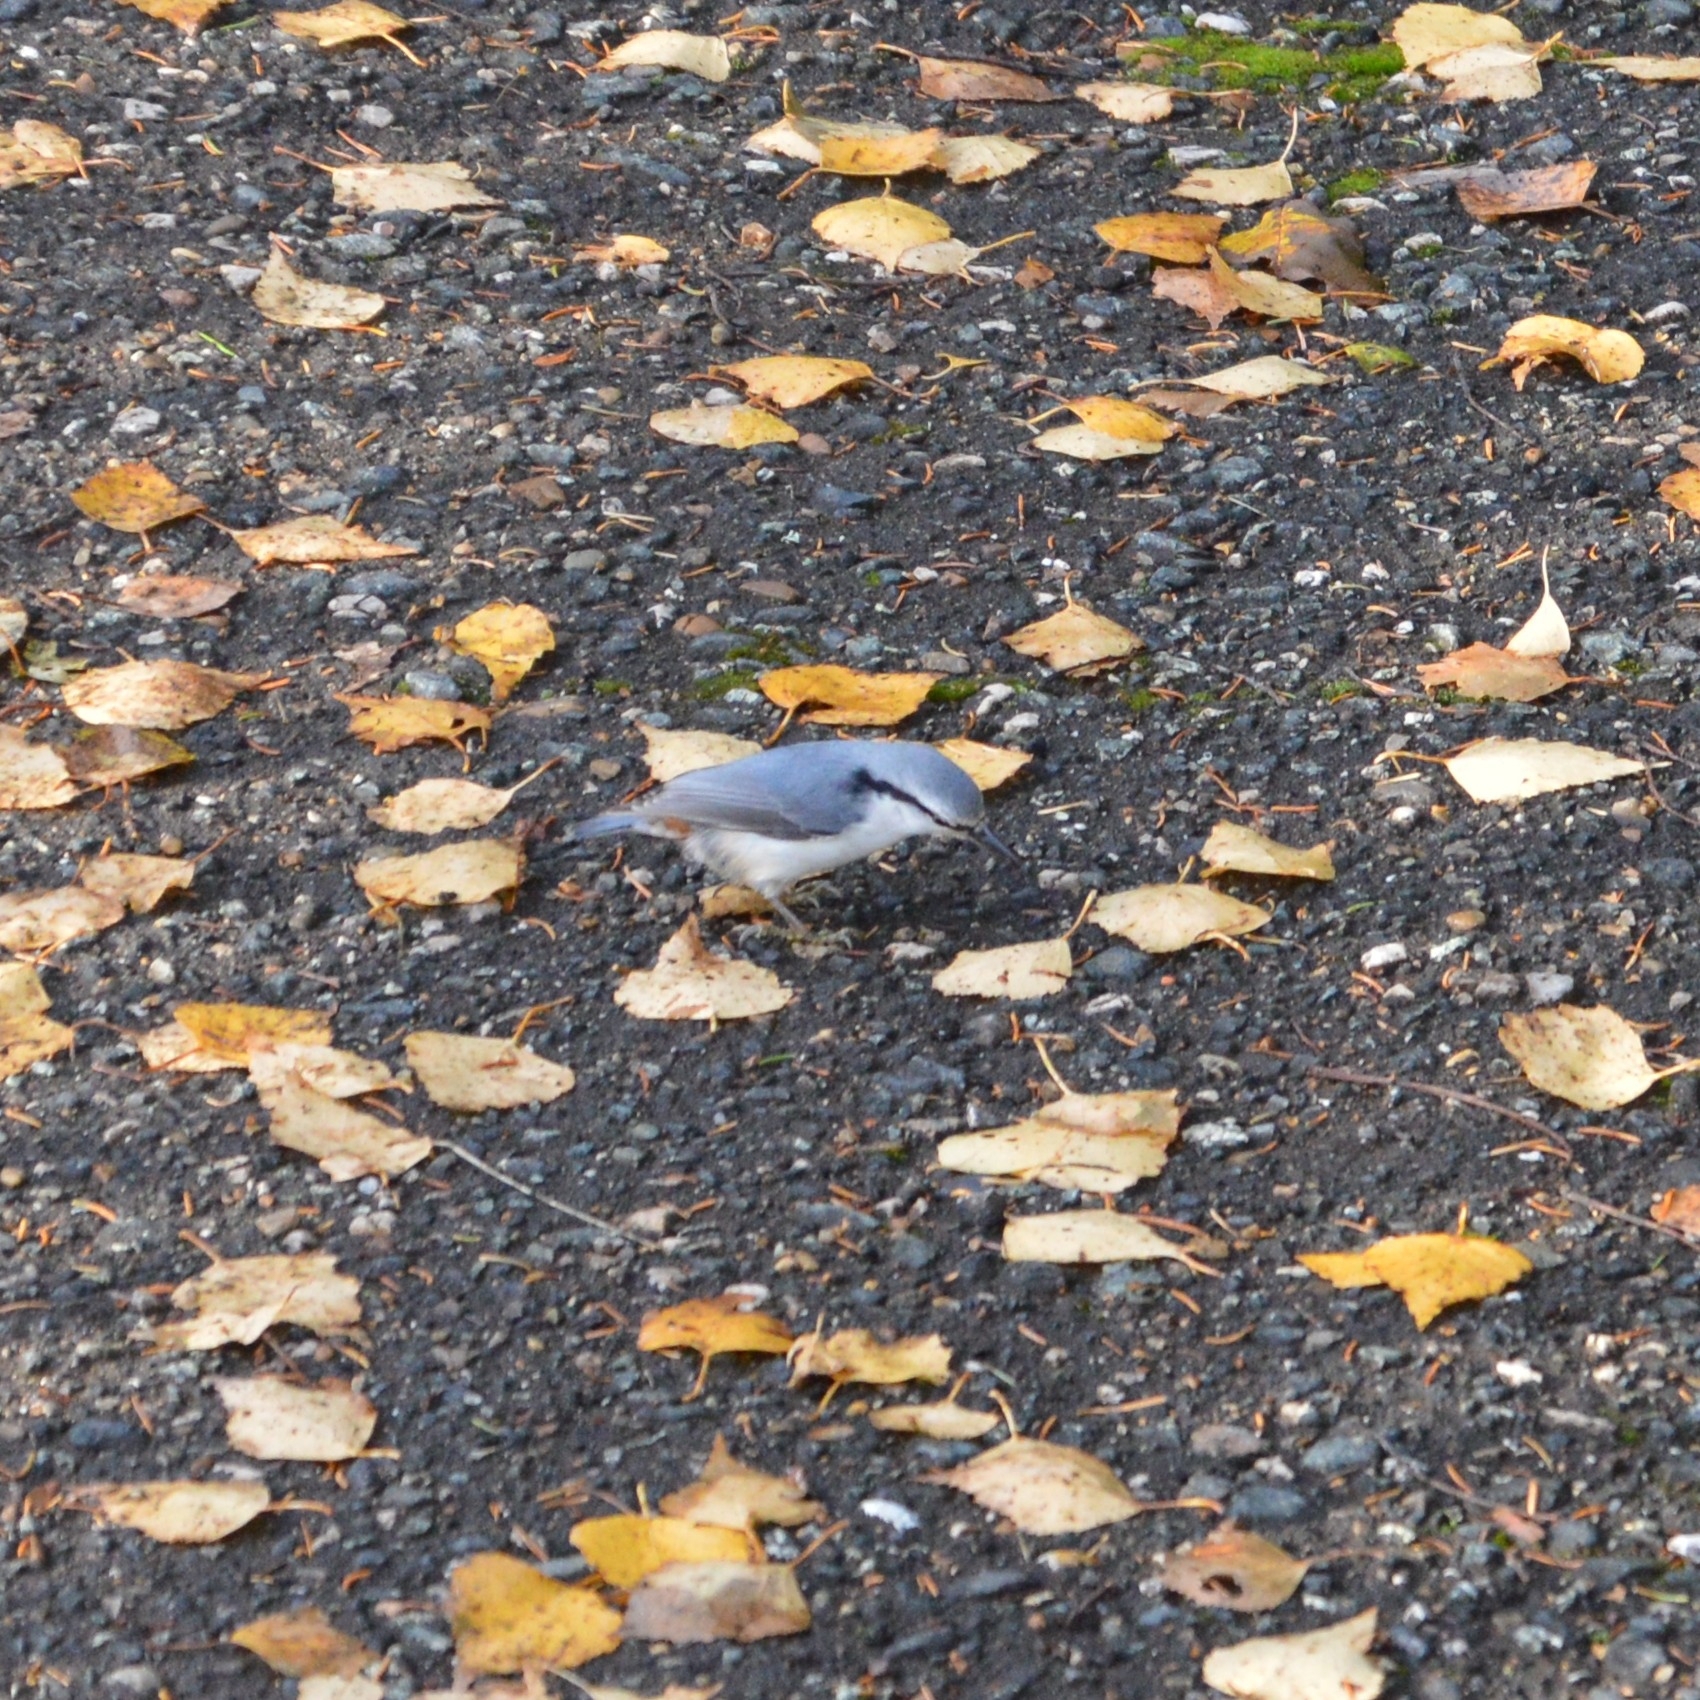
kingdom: Animalia
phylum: Chordata
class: Aves
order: Passeriformes
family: Sittidae
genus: Sitta
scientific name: Sitta europaea
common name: Eurasian nuthatch
